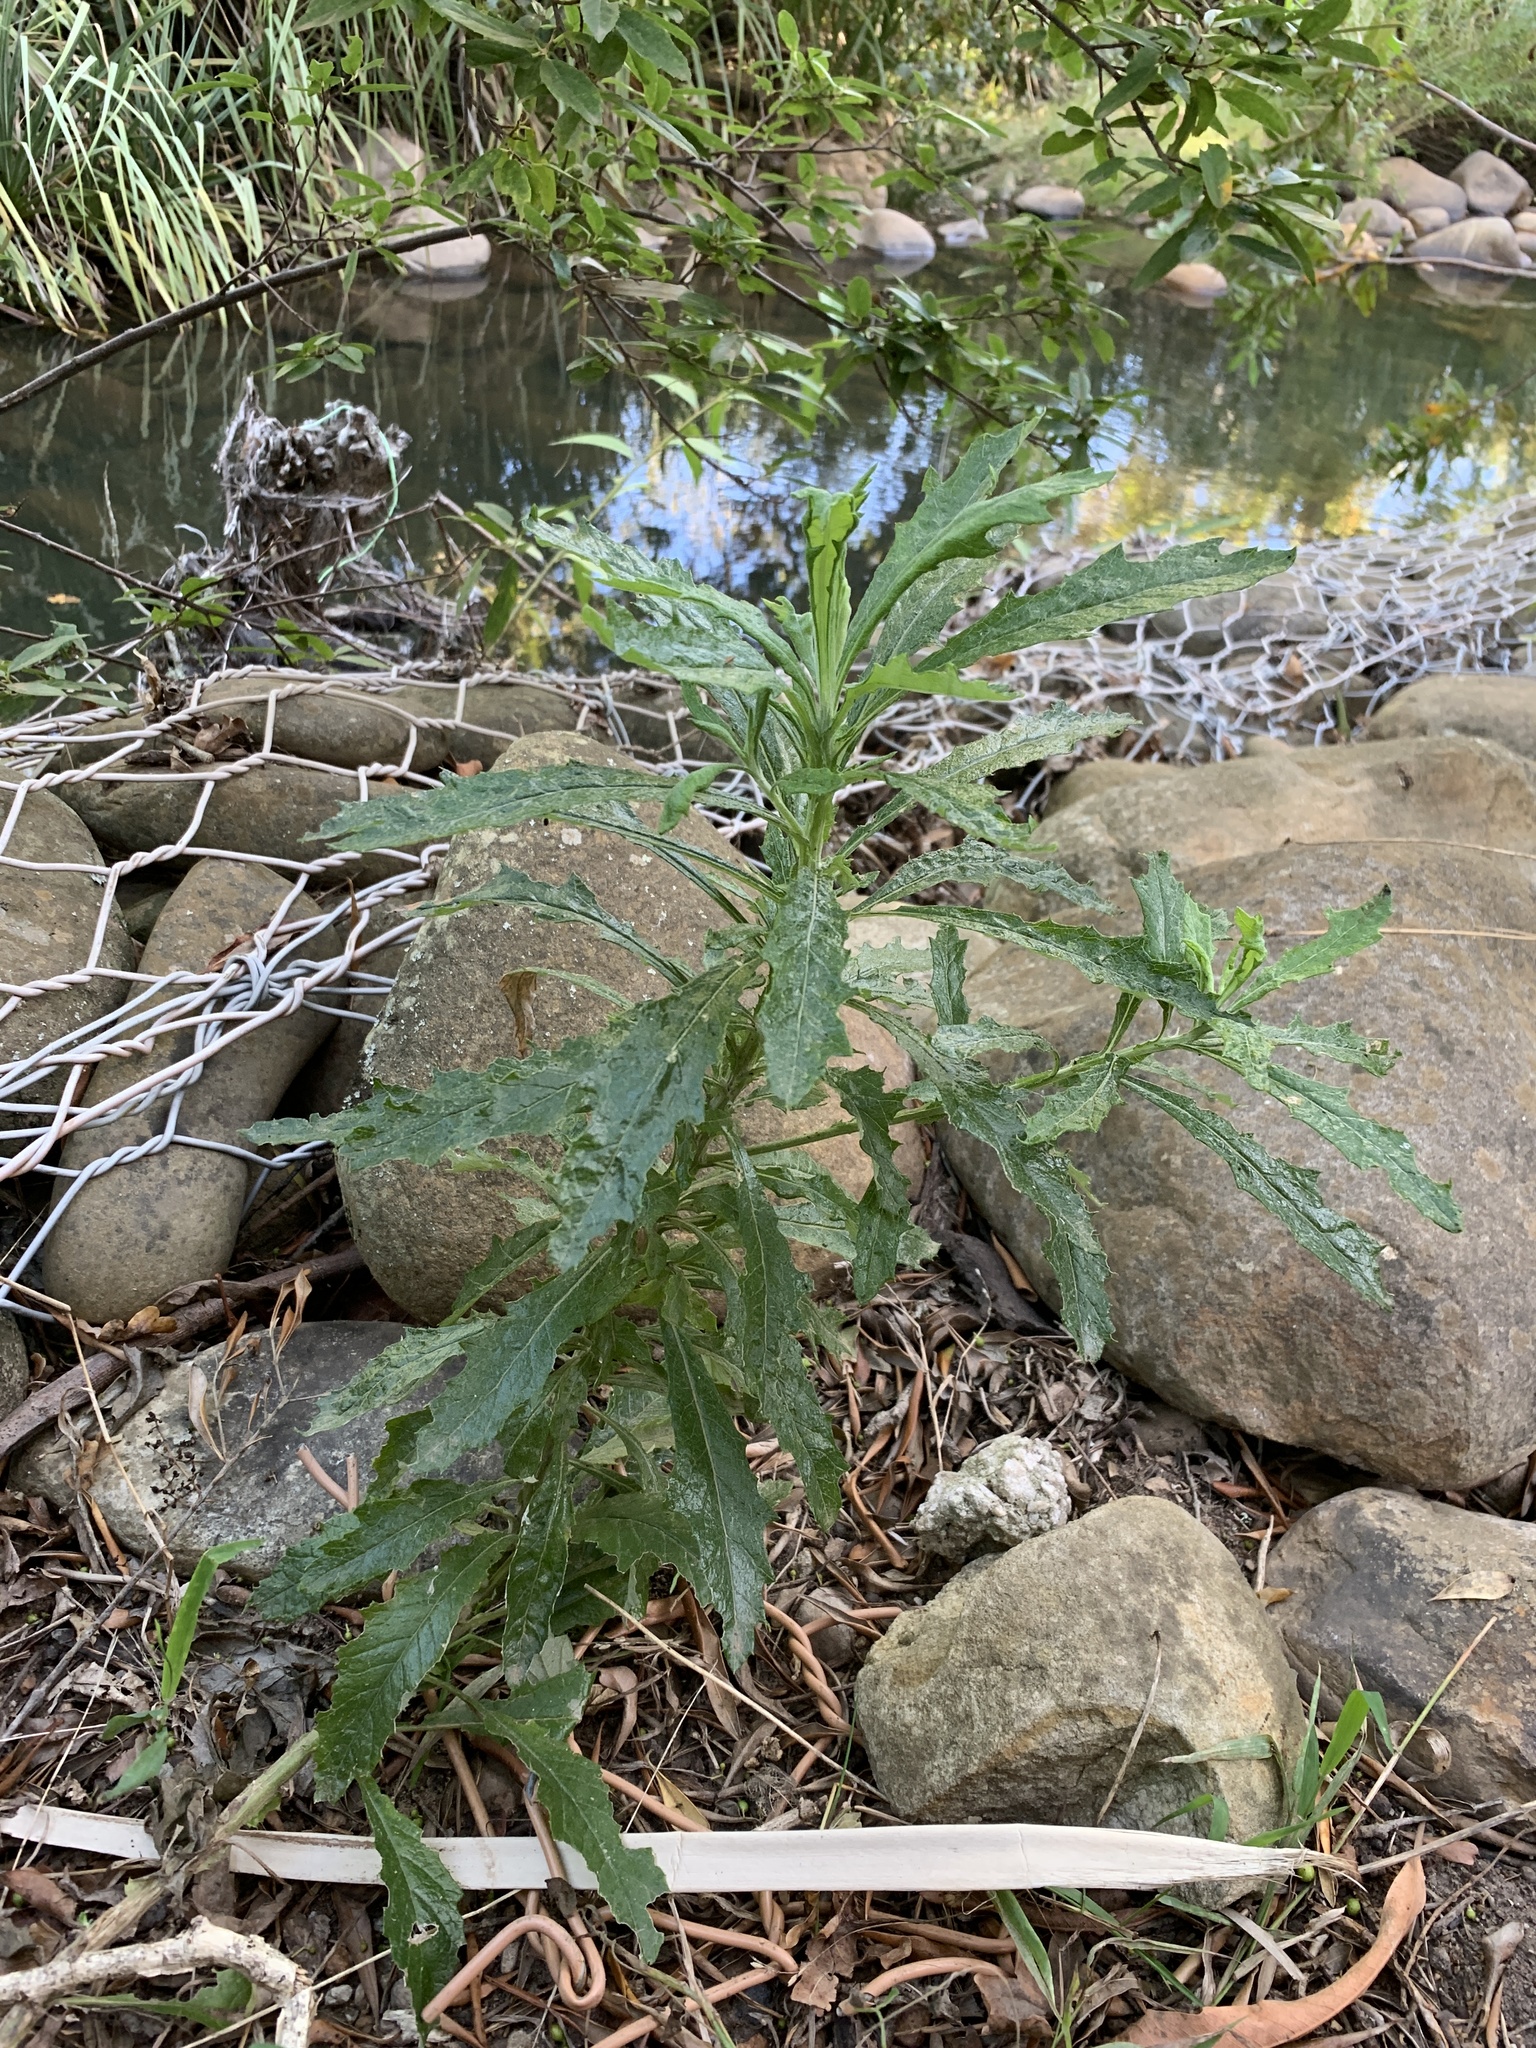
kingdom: Plantae
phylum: Tracheophyta
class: Magnoliopsida
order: Asterales
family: Asteraceae
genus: Senecio
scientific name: Senecio pterophorus
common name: Shoddy ragwort
